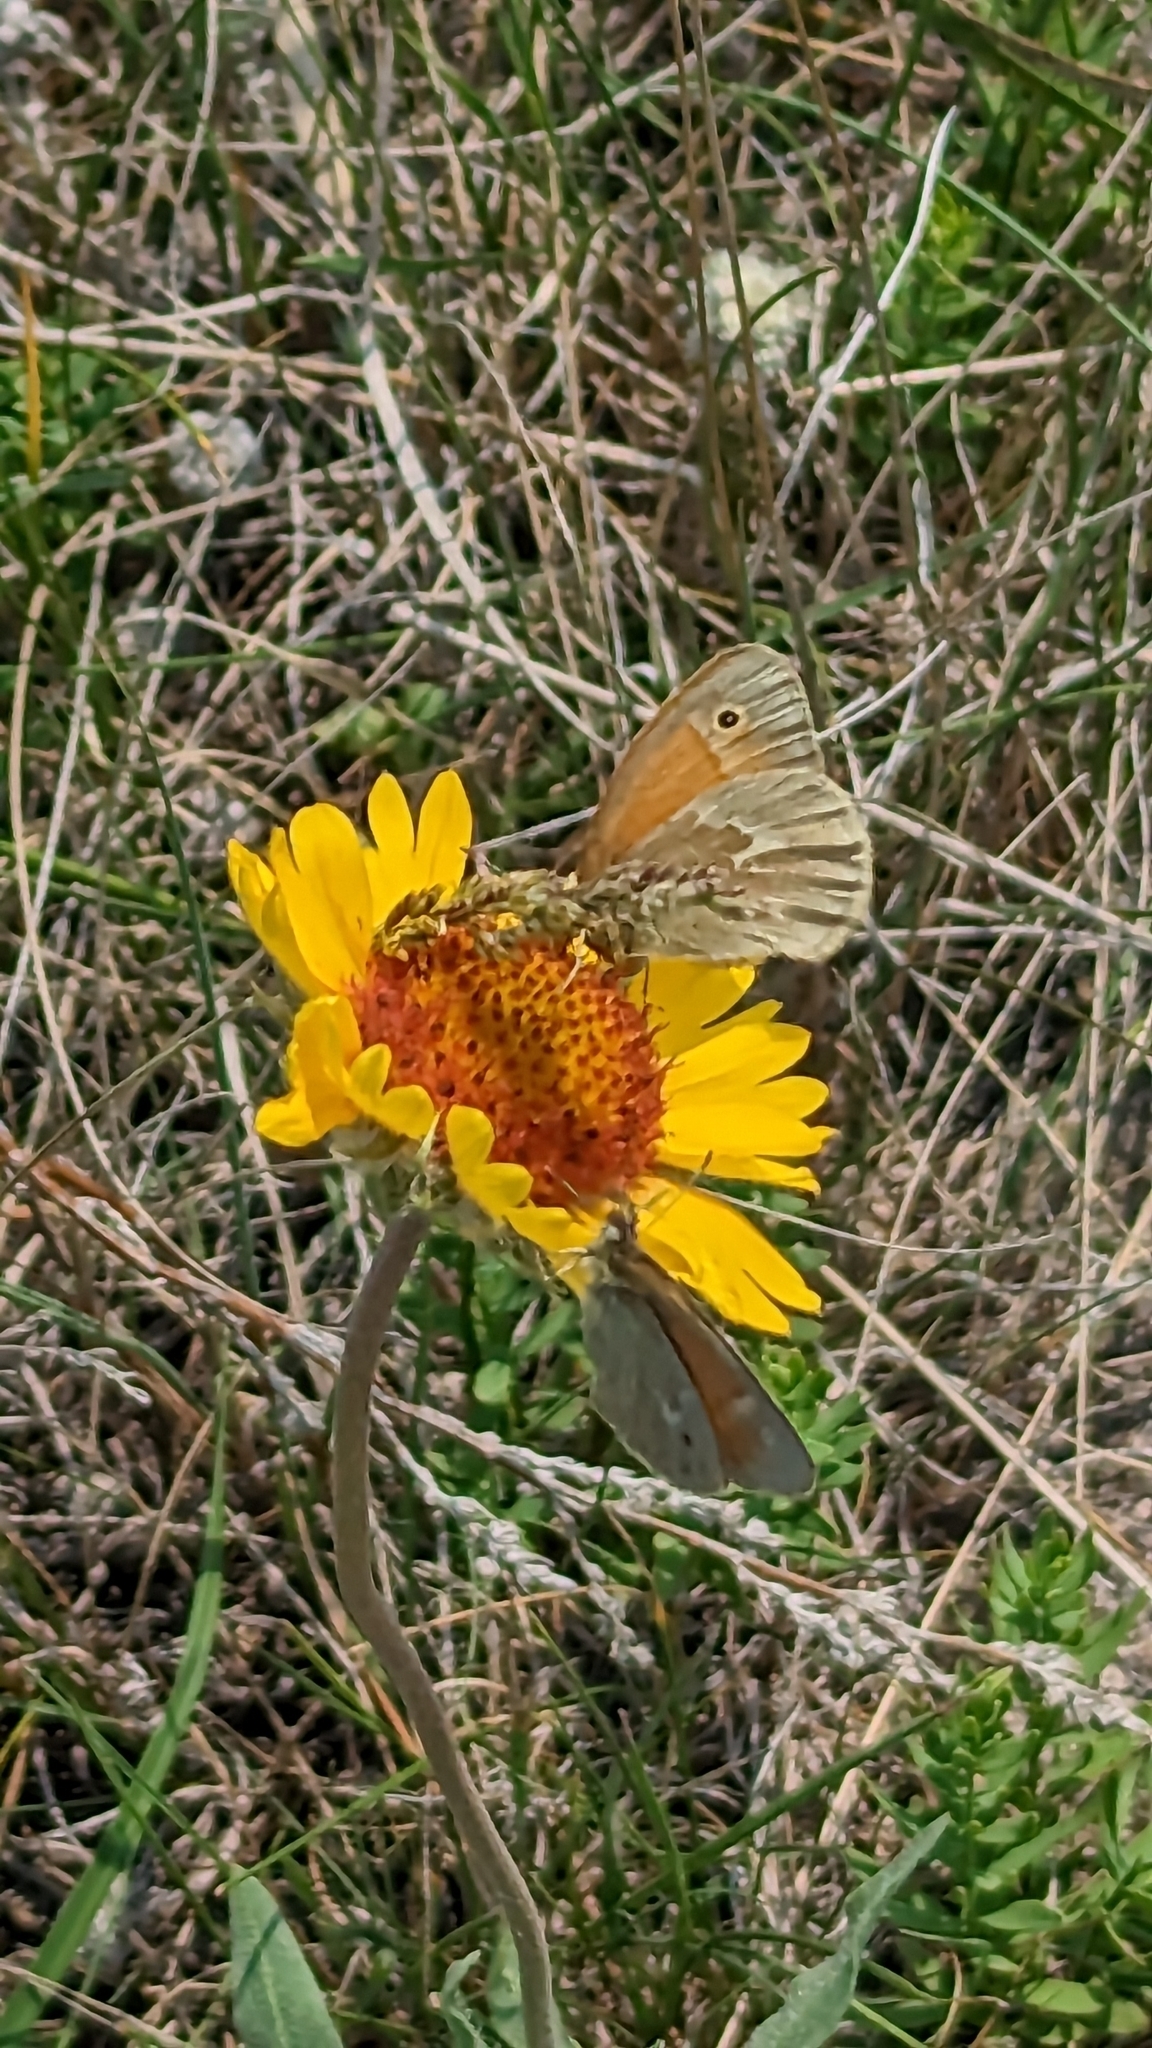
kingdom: Animalia
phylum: Arthropoda
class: Insecta
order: Lepidoptera
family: Nymphalidae
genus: Coenonympha
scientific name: Coenonympha california
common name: Common ringlet
